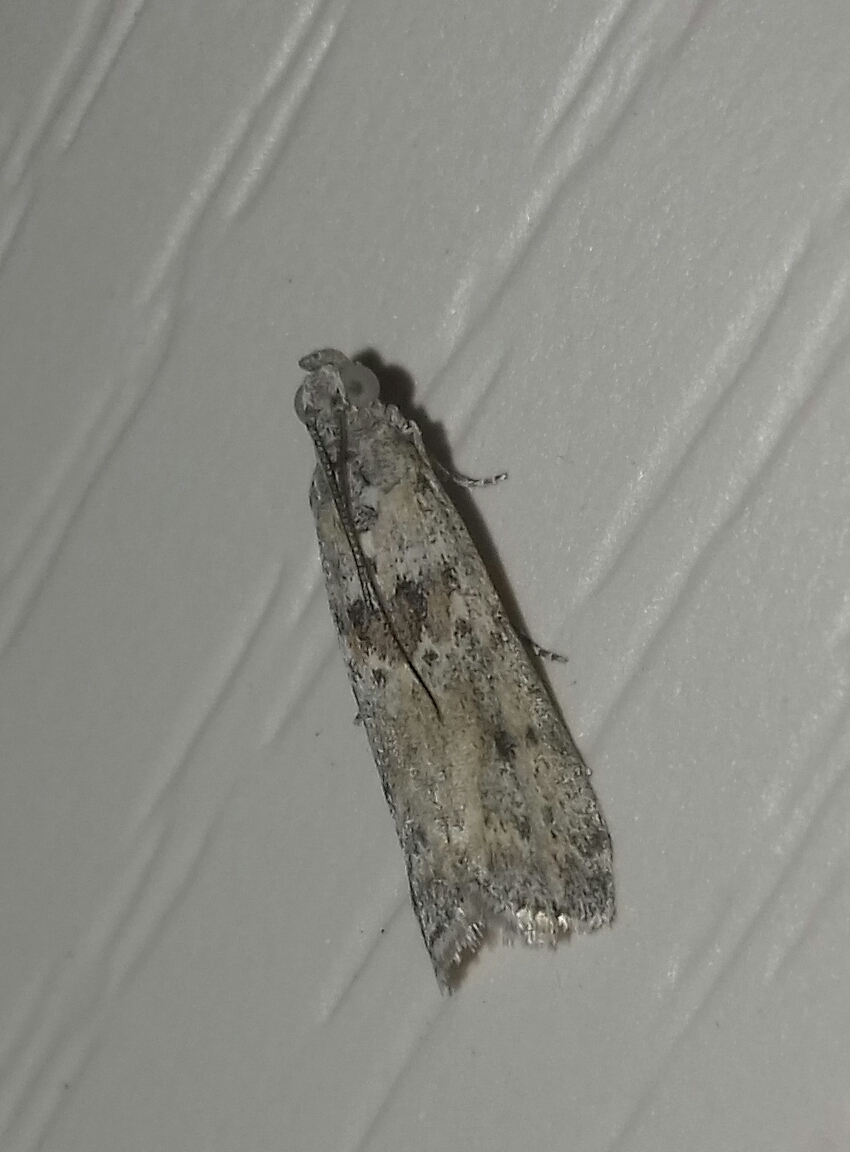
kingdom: Animalia
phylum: Arthropoda
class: Insecta
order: Lepidoptera
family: Pyralidae
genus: Ancylosis
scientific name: Ancylosis oblitella
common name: Saltmarsh knot-horn
